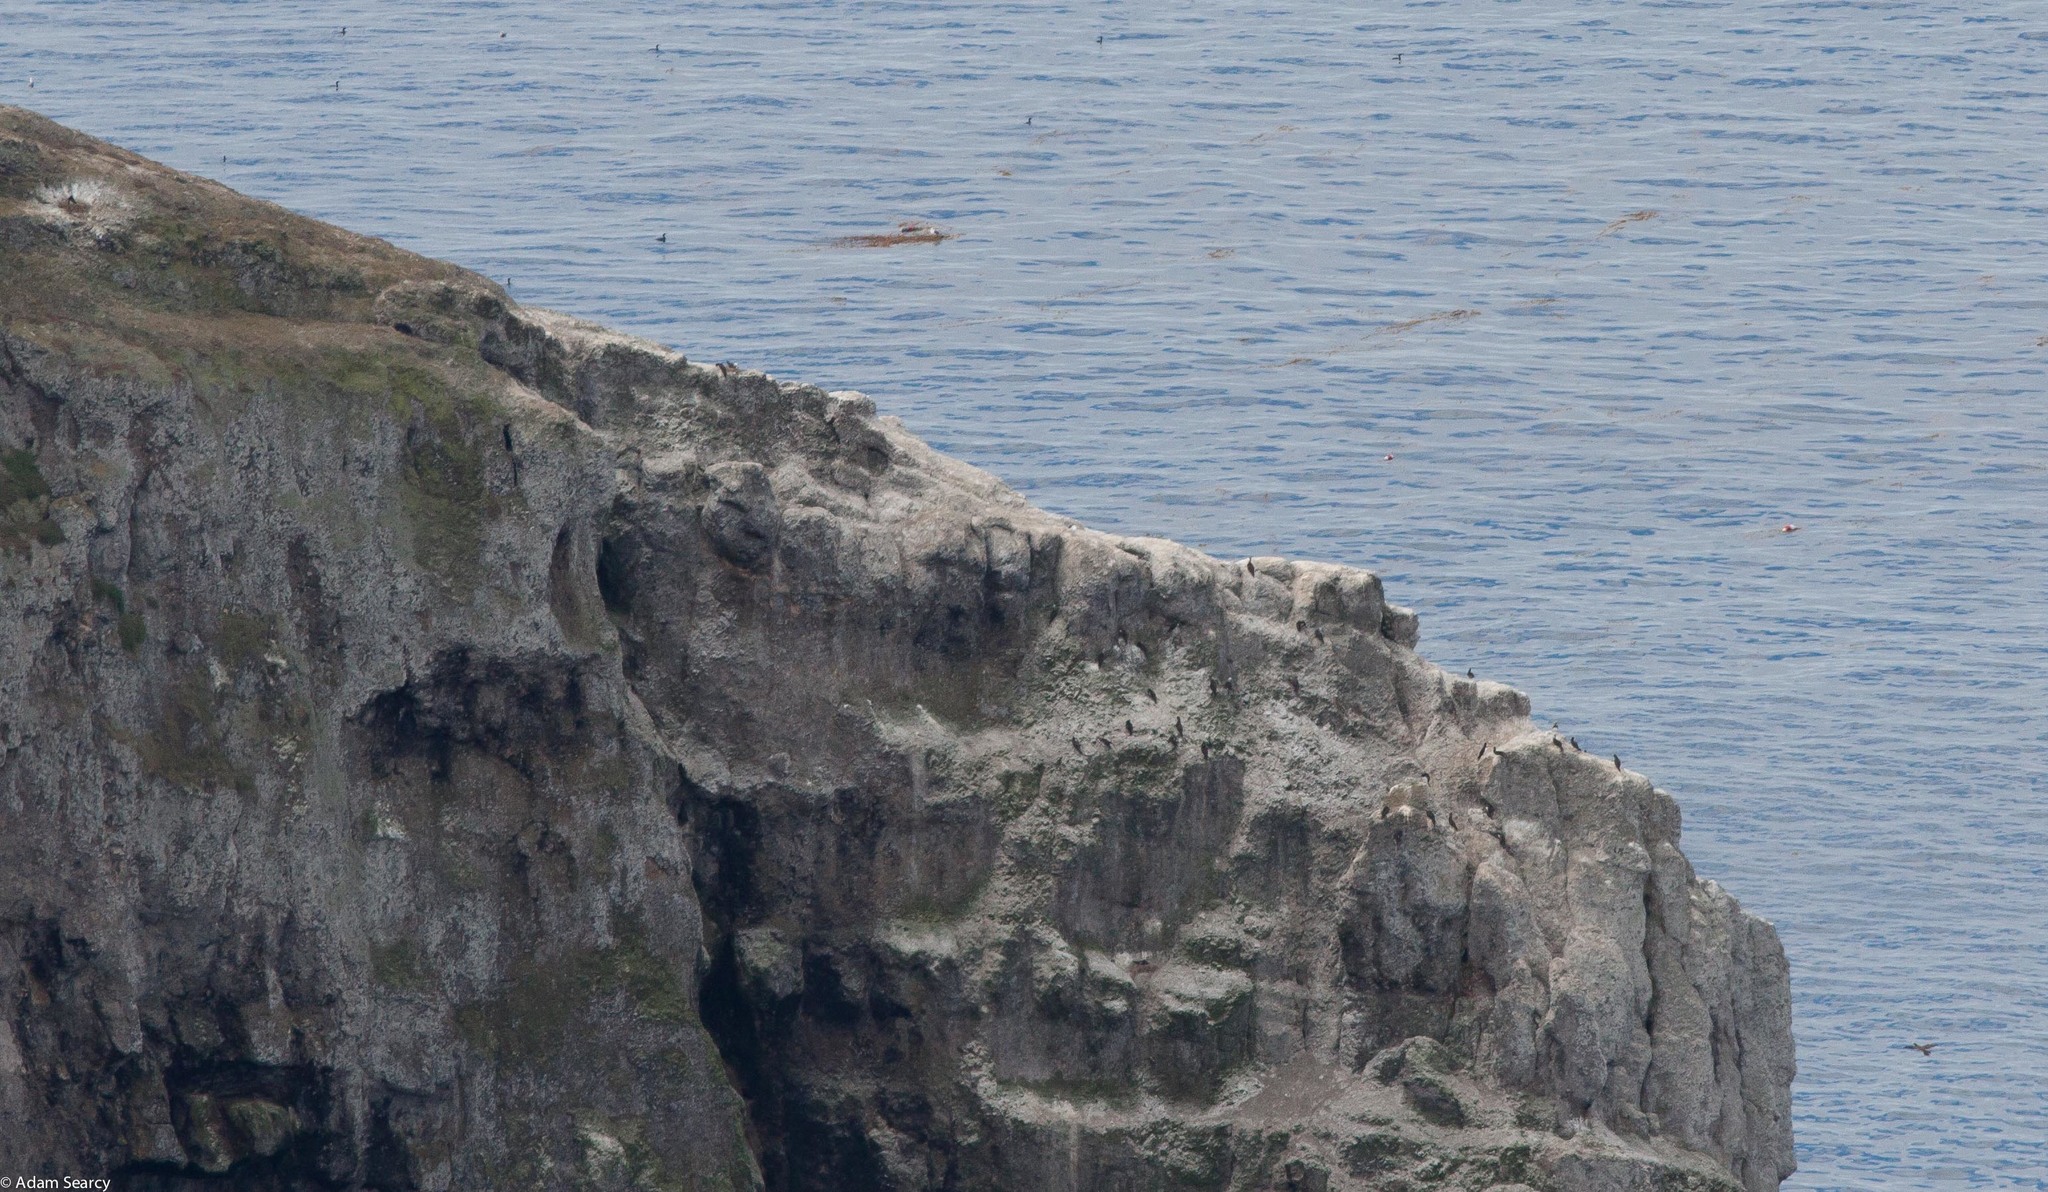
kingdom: Animalia
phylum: Chordata
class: Aves
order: Suliformes
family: Sulidae
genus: Sula
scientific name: Sula leucogaster
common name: Brown booby
